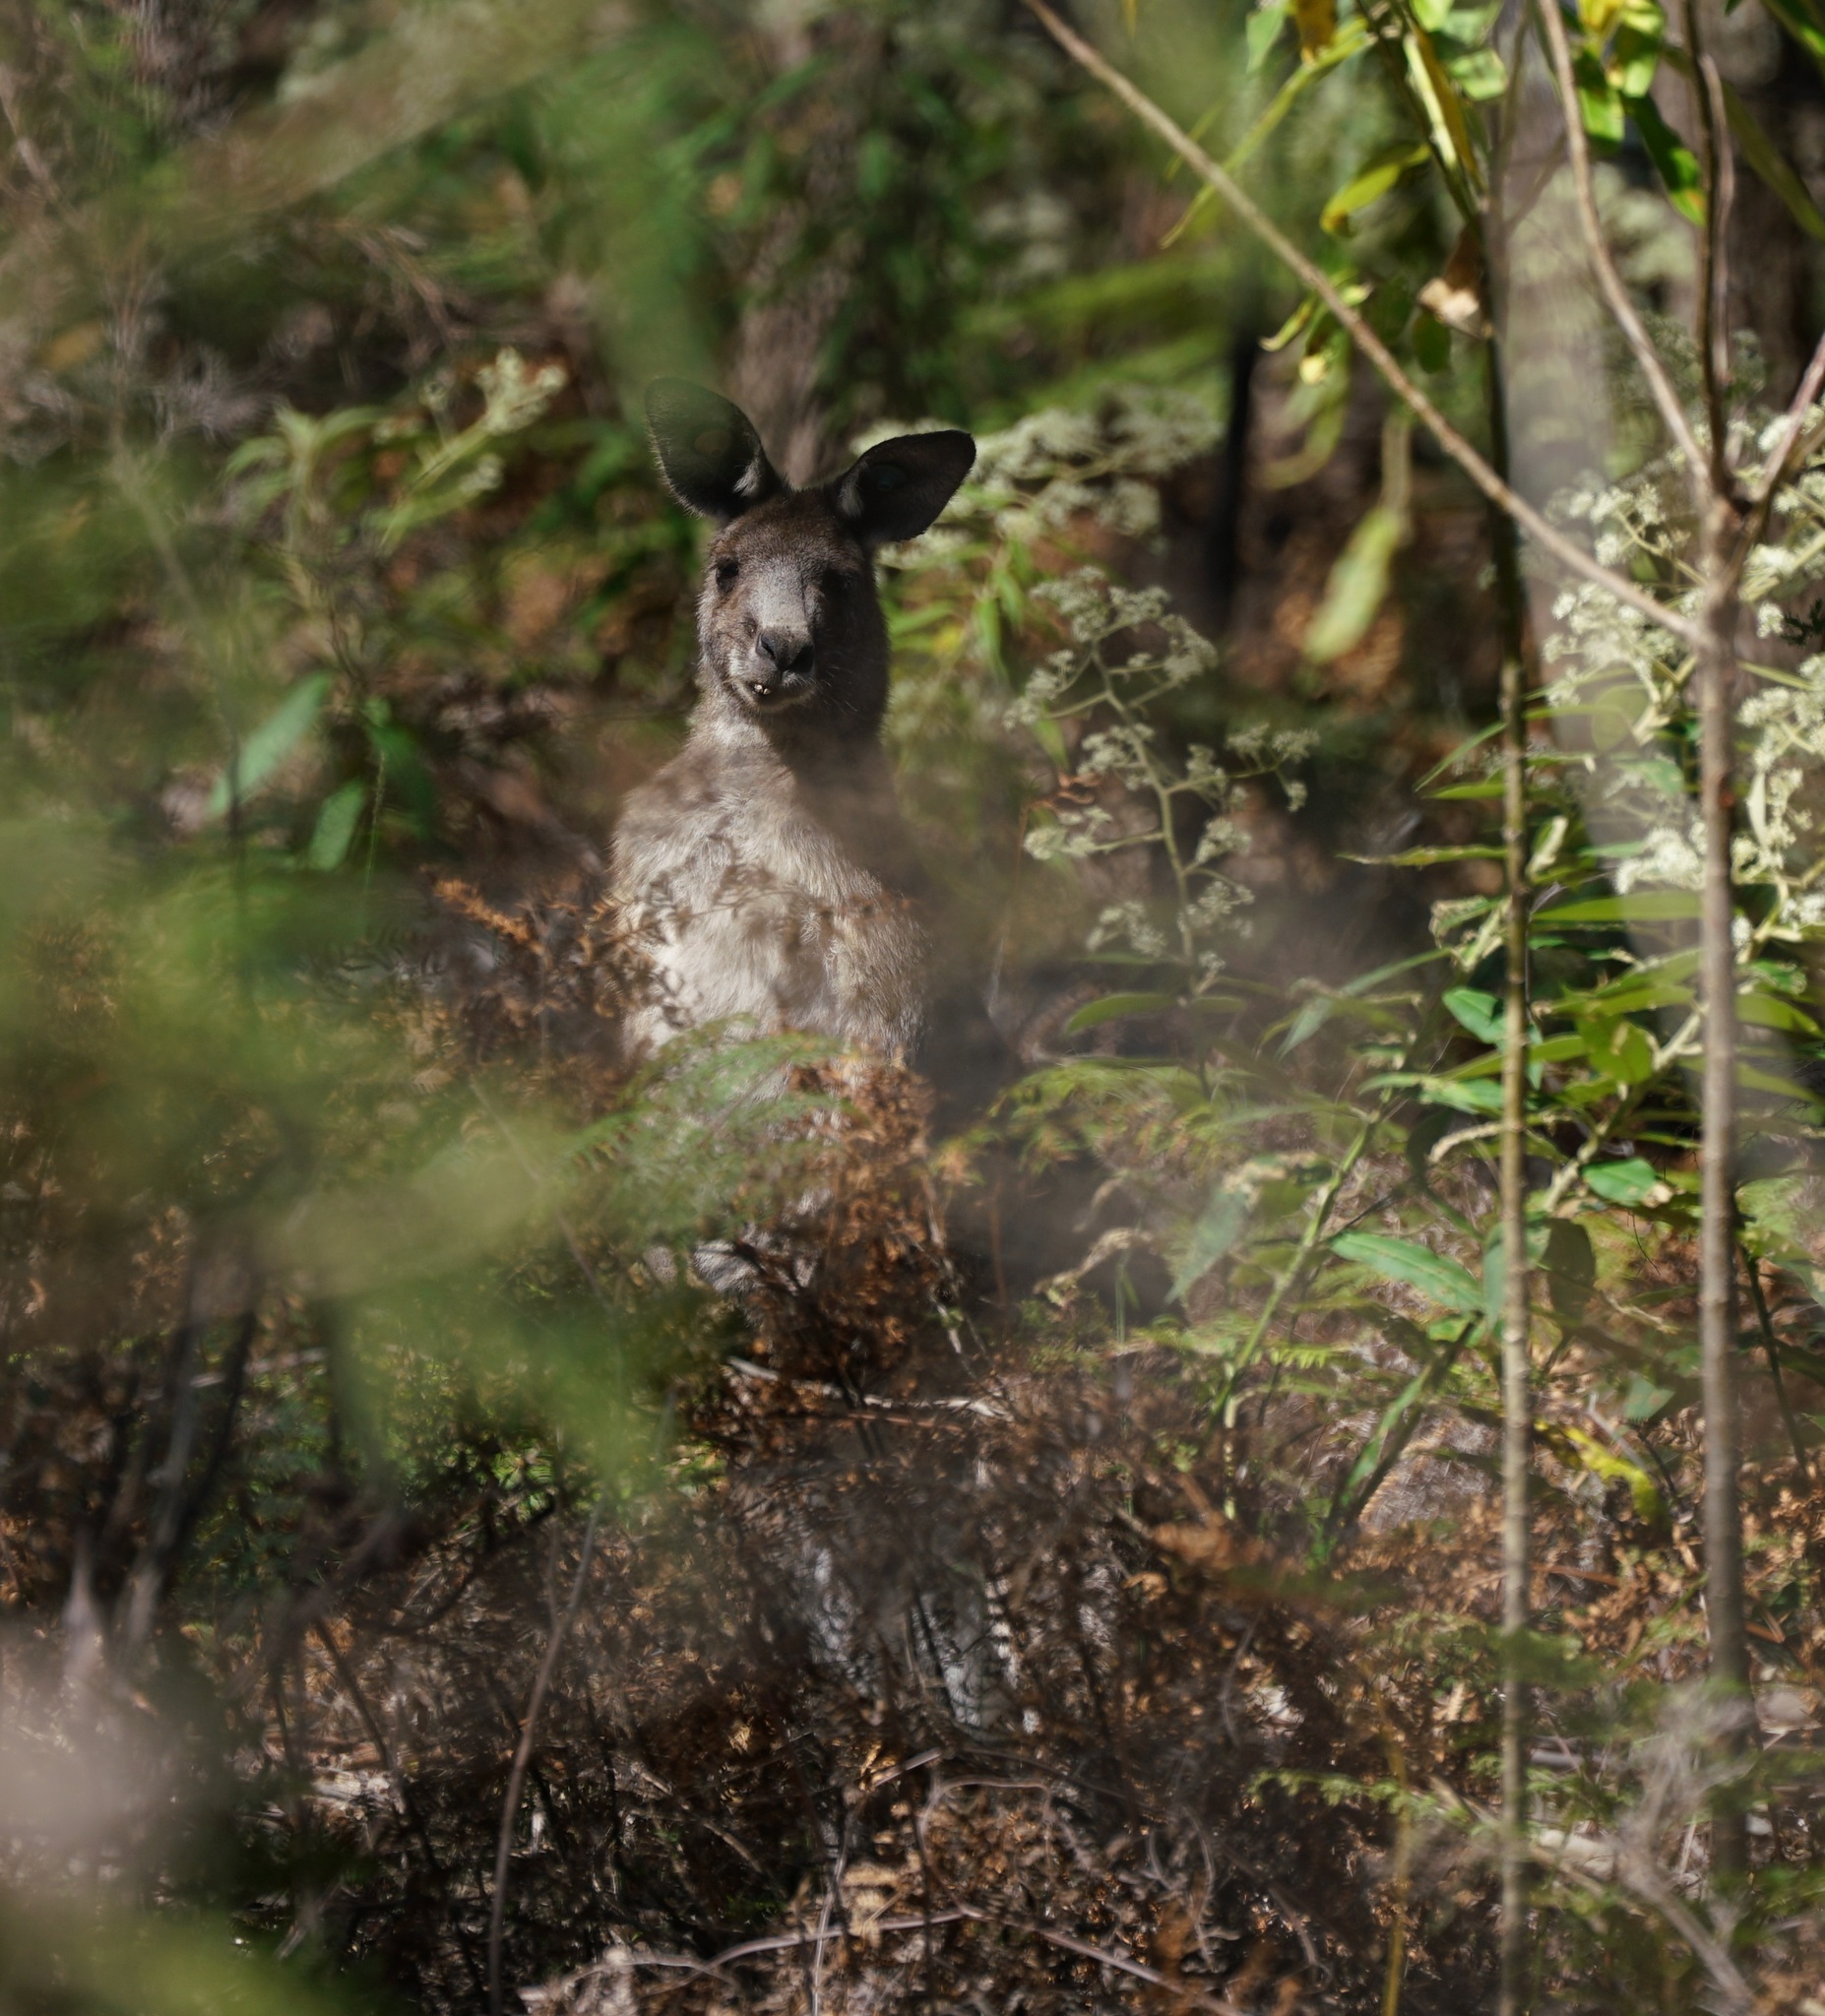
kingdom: Animalia
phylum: Chordata
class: Mammalia
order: Diprotodontia
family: Macropodidae
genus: Macropus
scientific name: Macropus giganteus
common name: Eastern grey kangaroo
